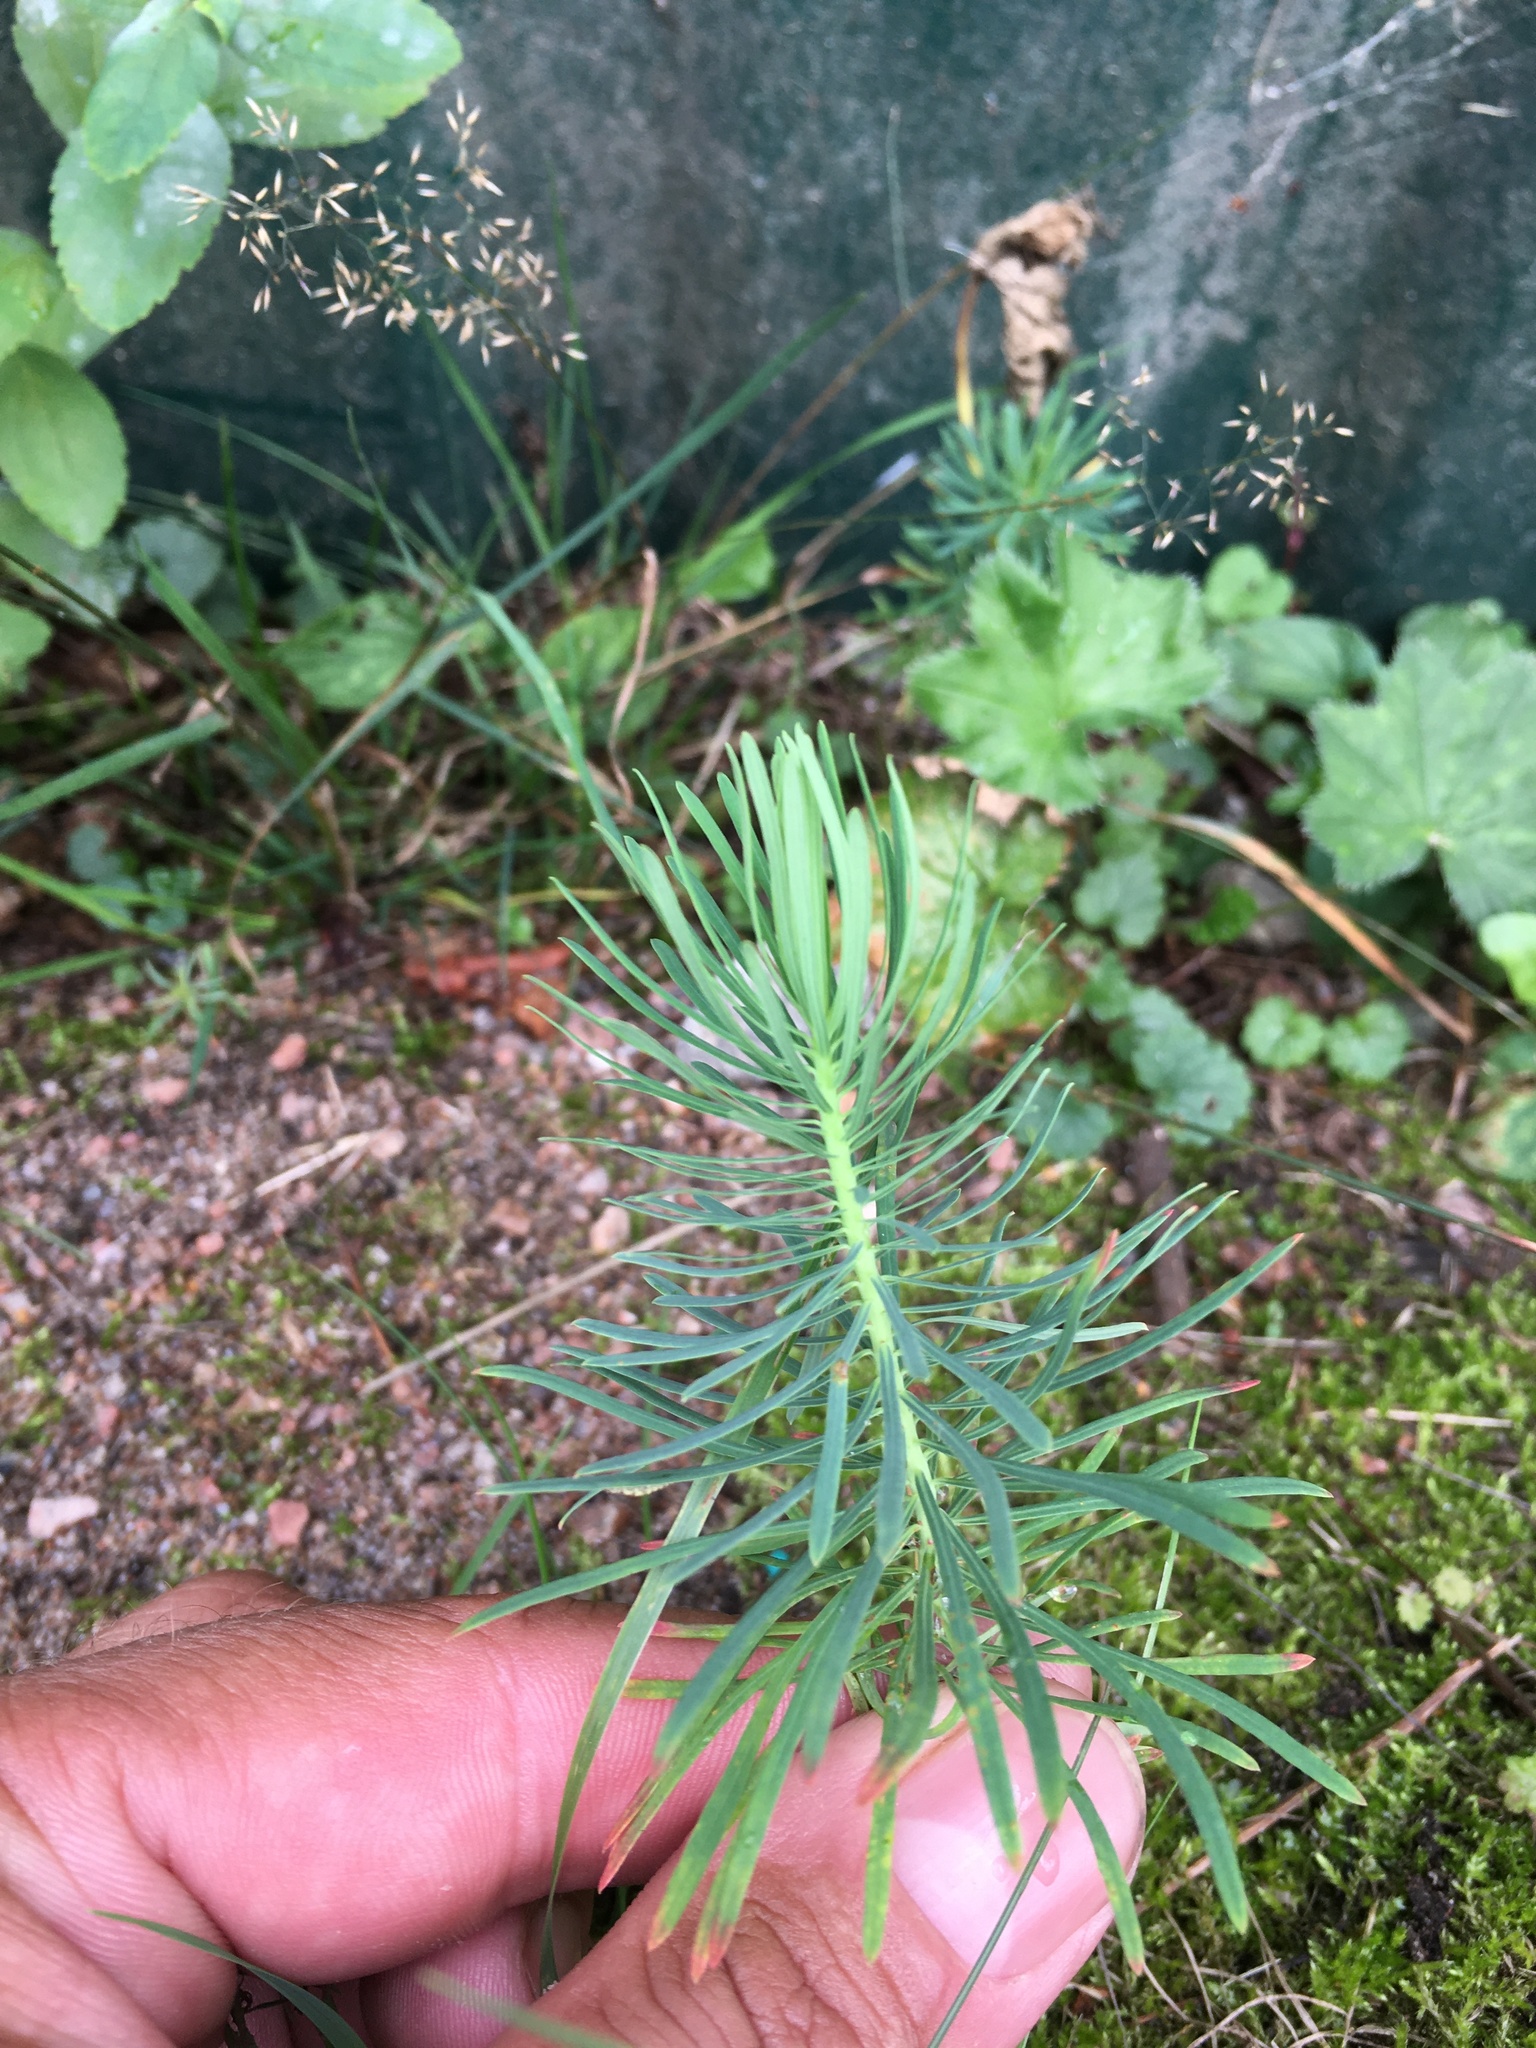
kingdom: Plantae
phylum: Tracheophyta
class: Magnoliopsida
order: Malpighiales
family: Euphorbiaceae
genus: Euphorbia
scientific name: Euphorbia cyparissias
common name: Cypress spurge
